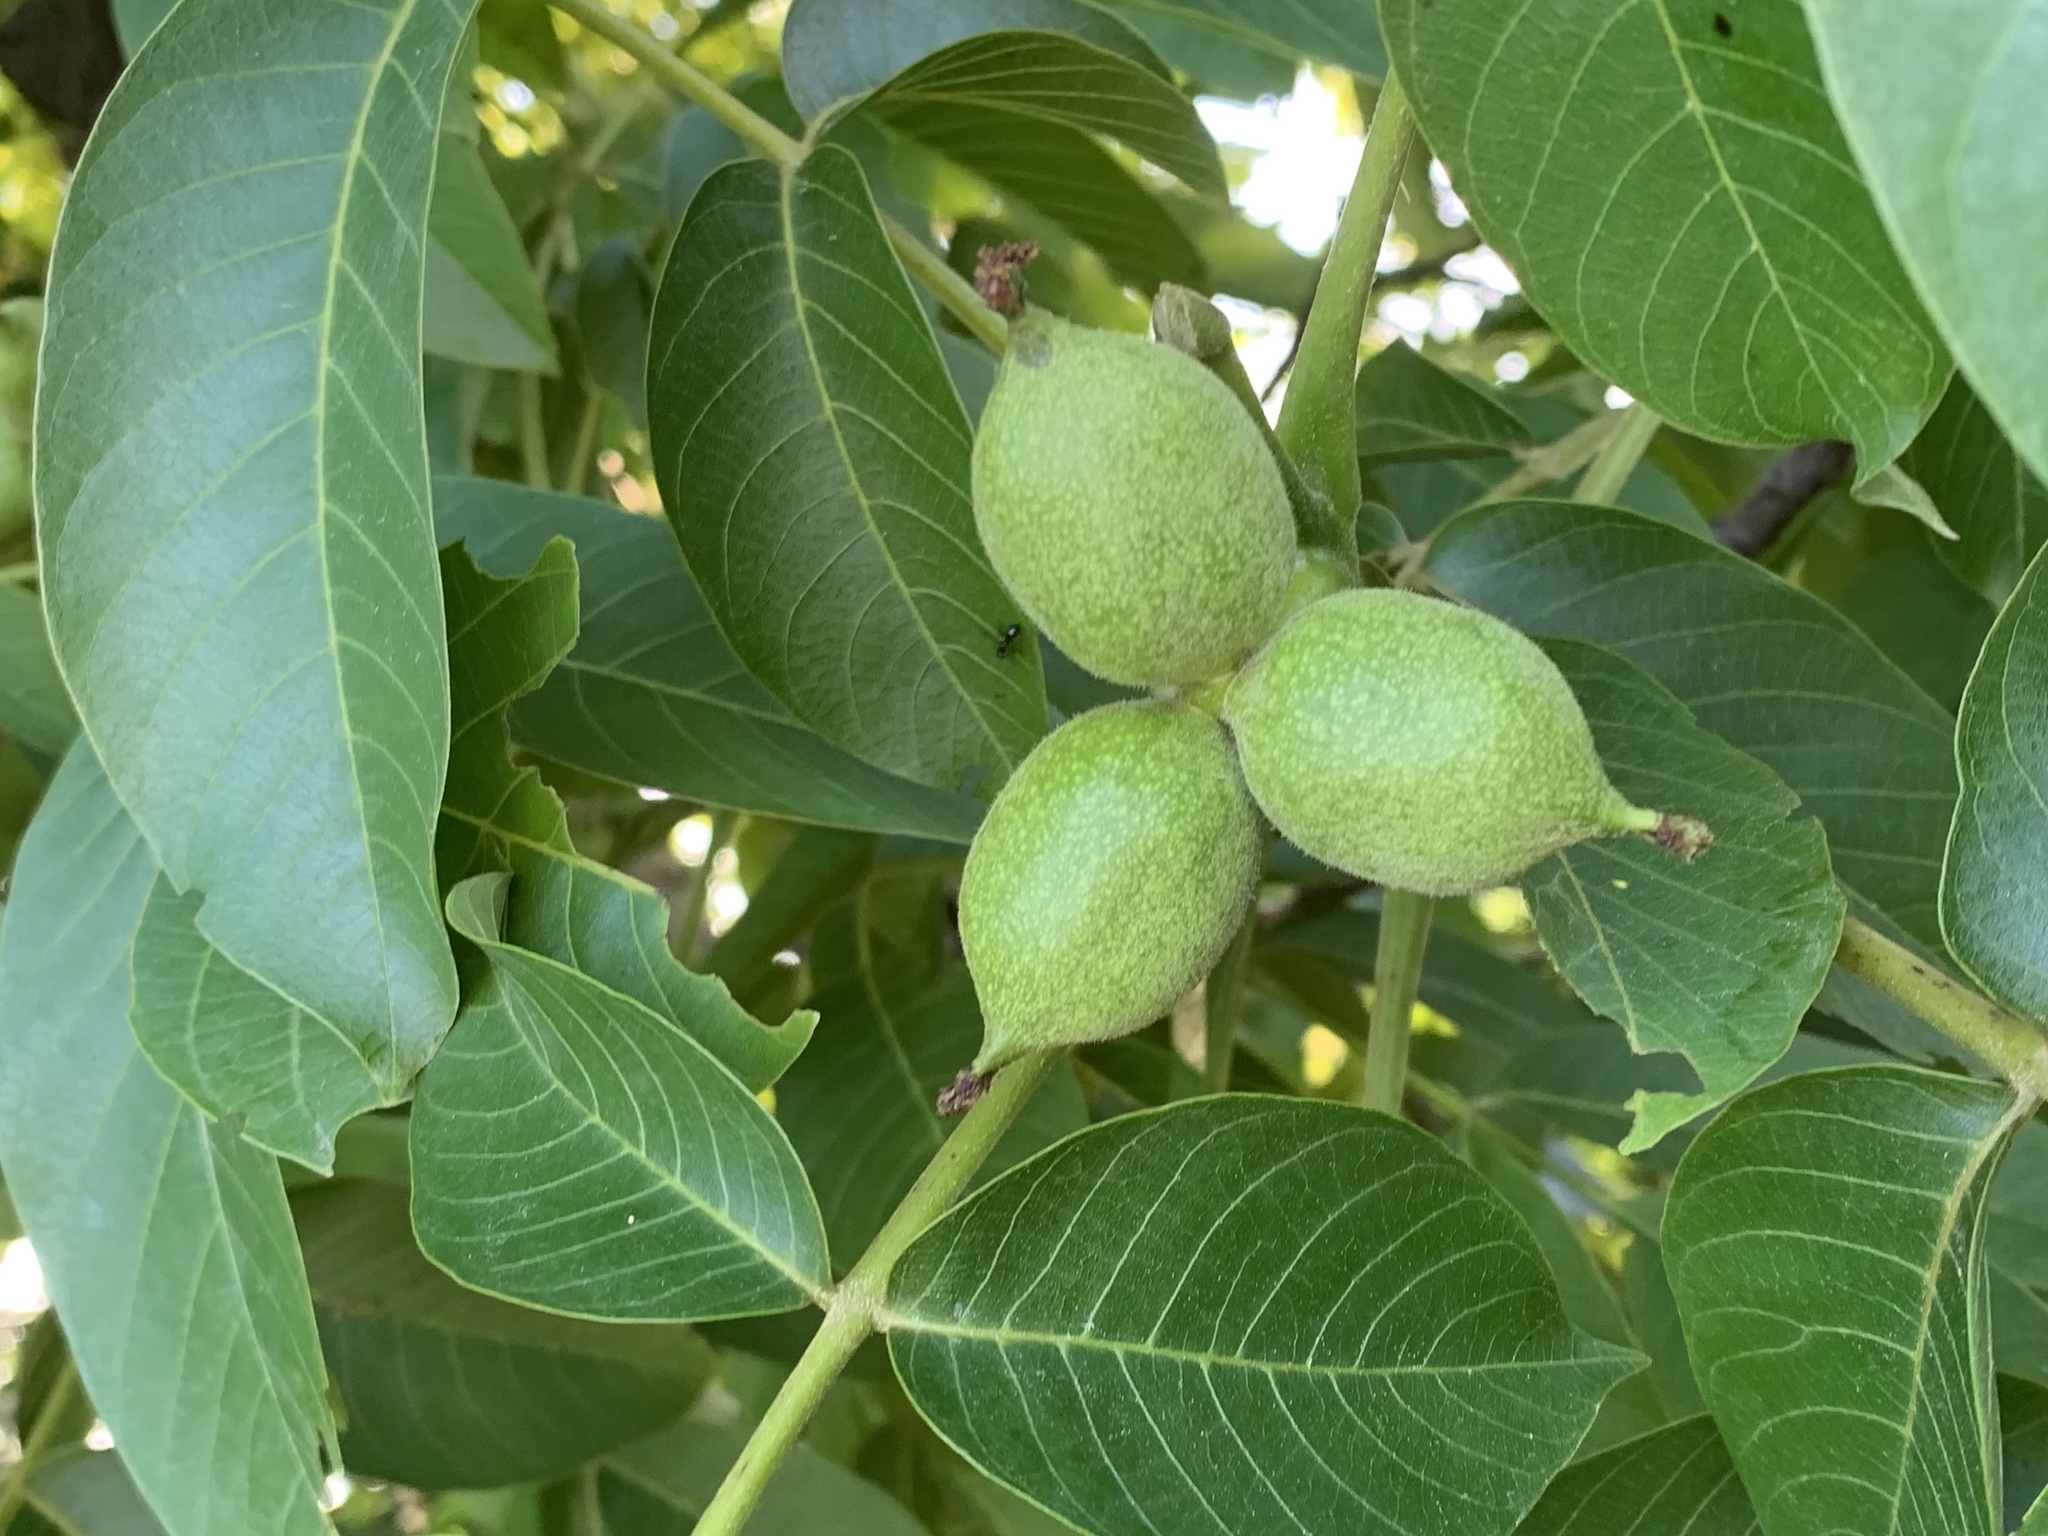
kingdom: Plantae
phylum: Tracheophyta
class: Magnoliopsida
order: Fagales
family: Juglandaceae
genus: Juglans
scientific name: Juglans regia
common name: Walnut
